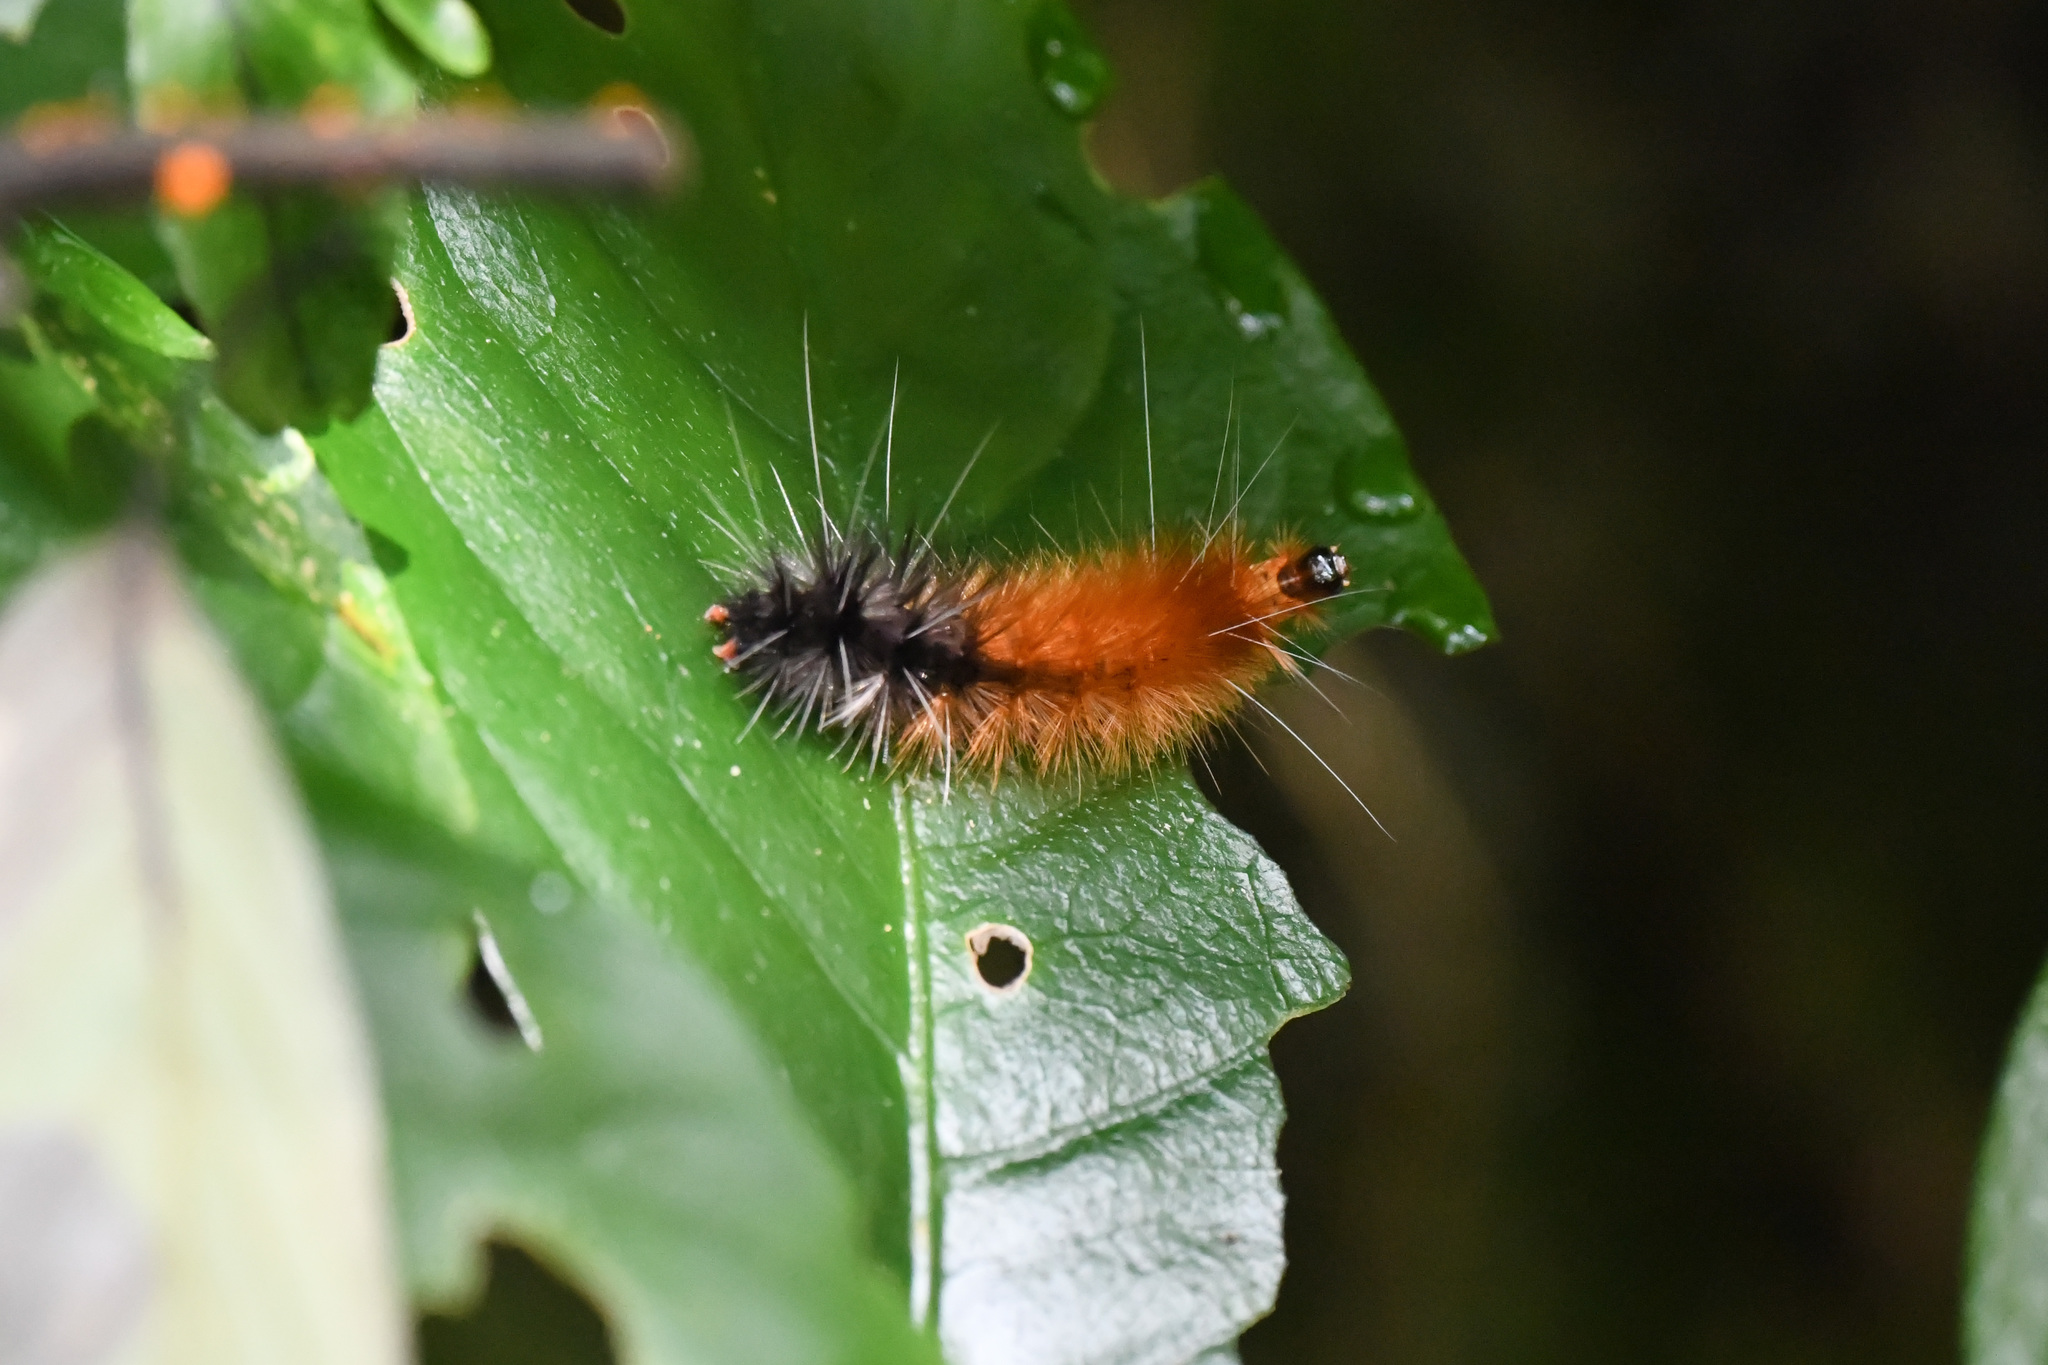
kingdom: Animalia
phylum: Arthropoda
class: Insecta
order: Lepidoptera
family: Erebidae
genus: Spilarctia
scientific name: Spilarctia nydia
